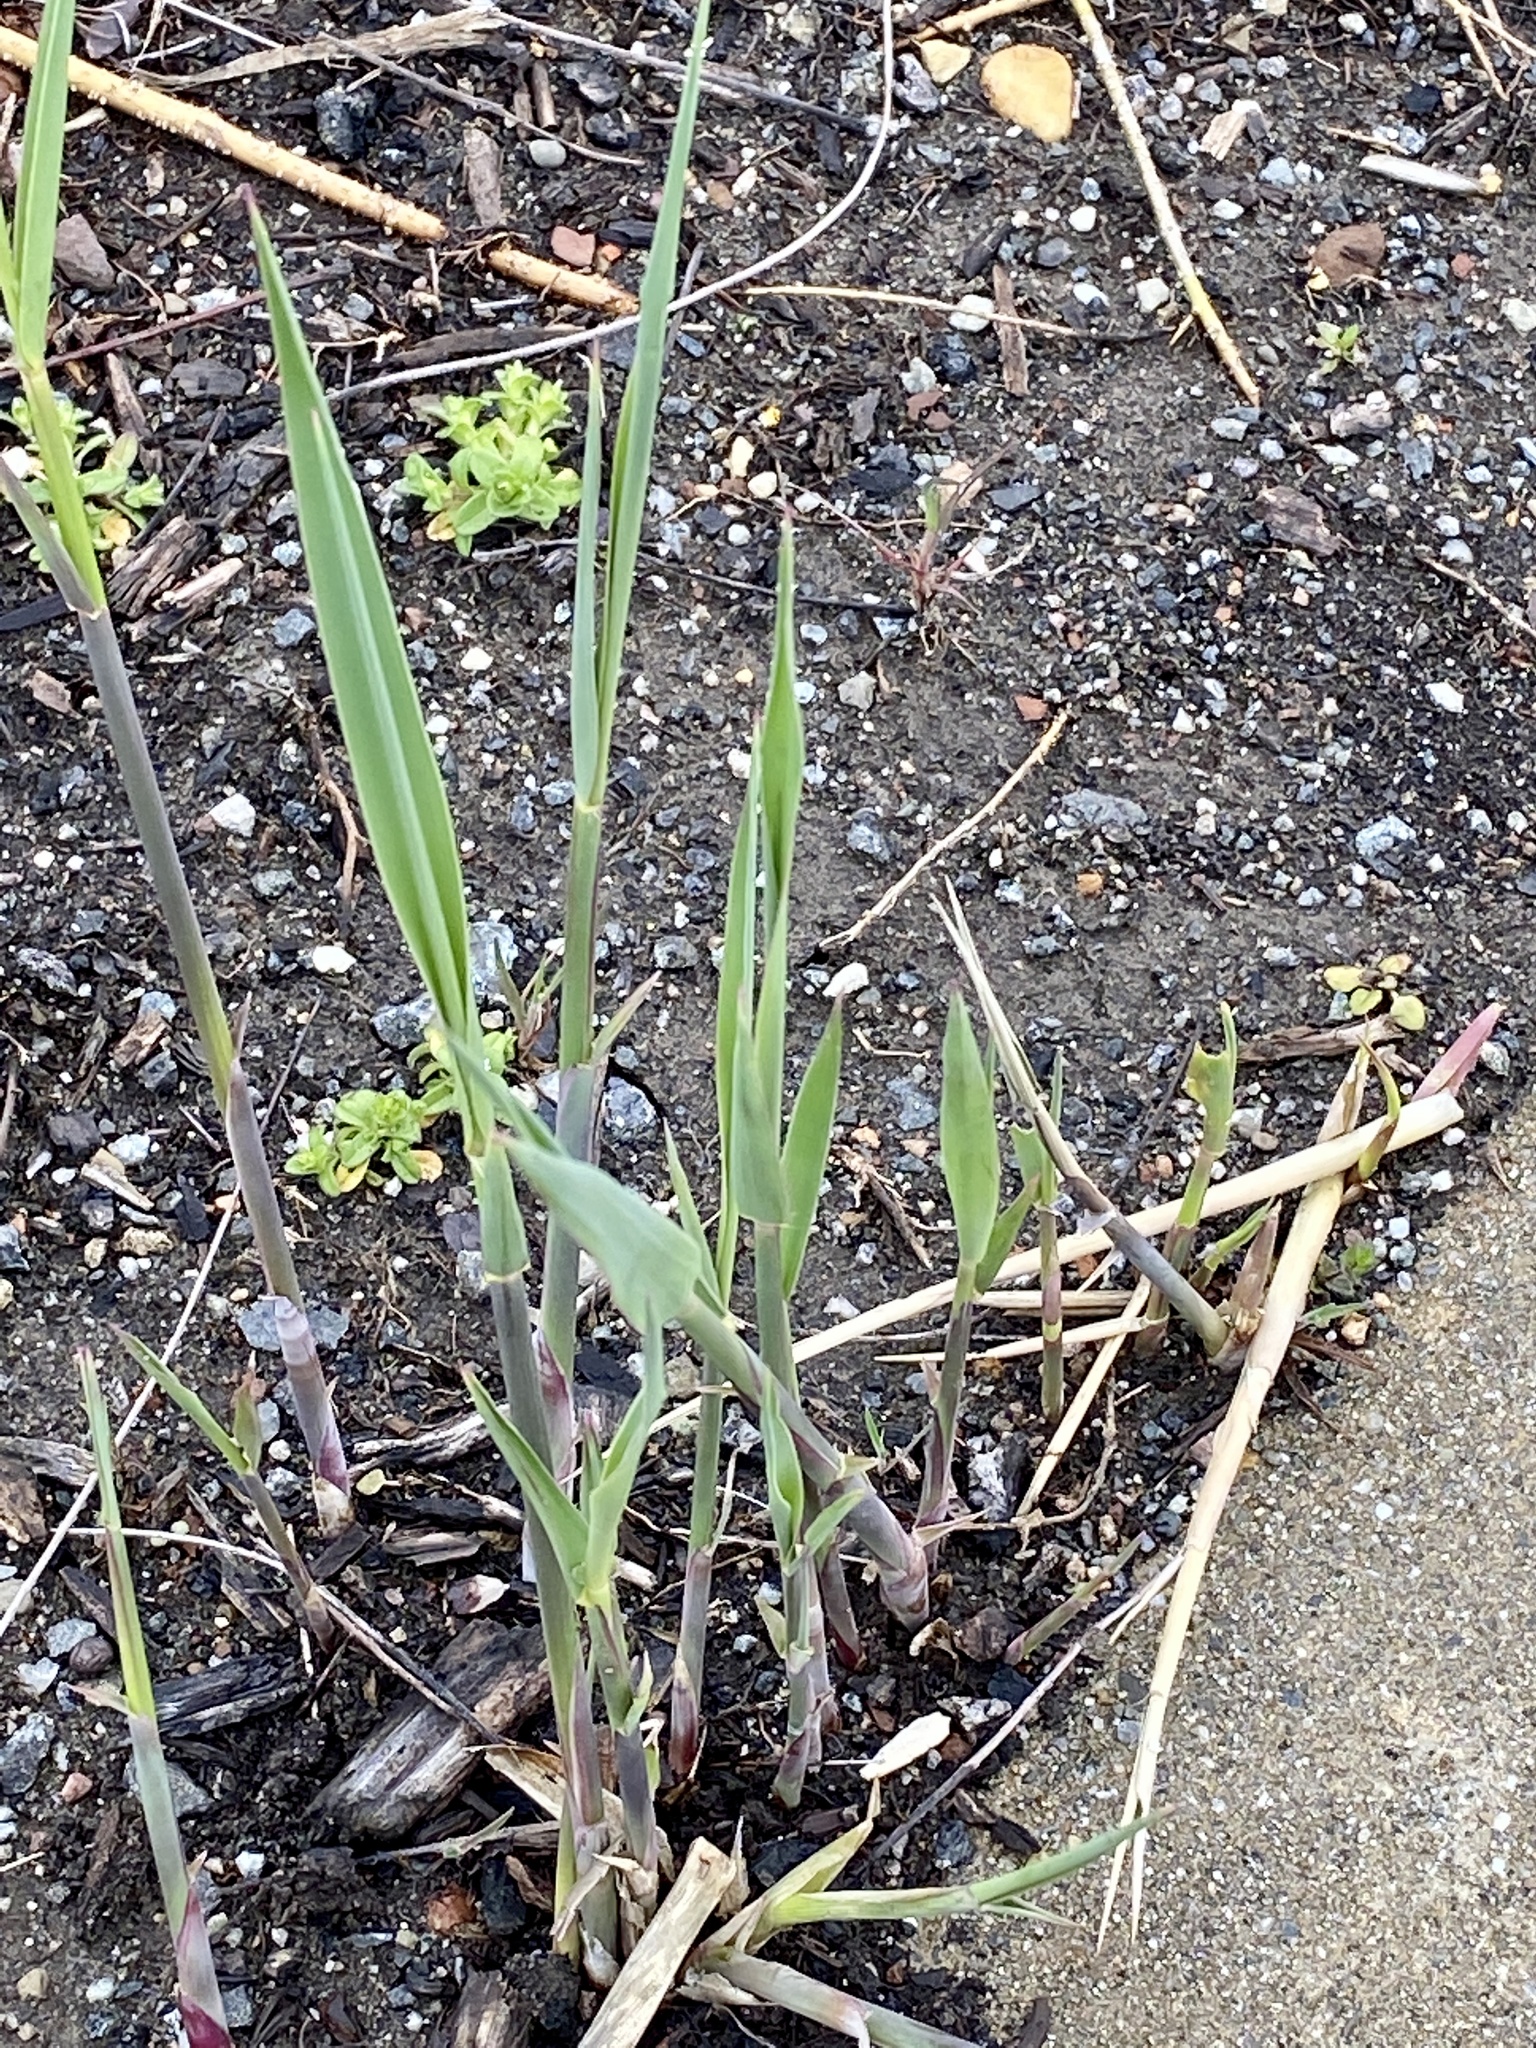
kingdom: Plantae
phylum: Tracheophyta
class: Liliopsida
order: Poales
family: Poaceae
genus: Phragmites
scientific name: Phragmites australis
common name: Common reed
